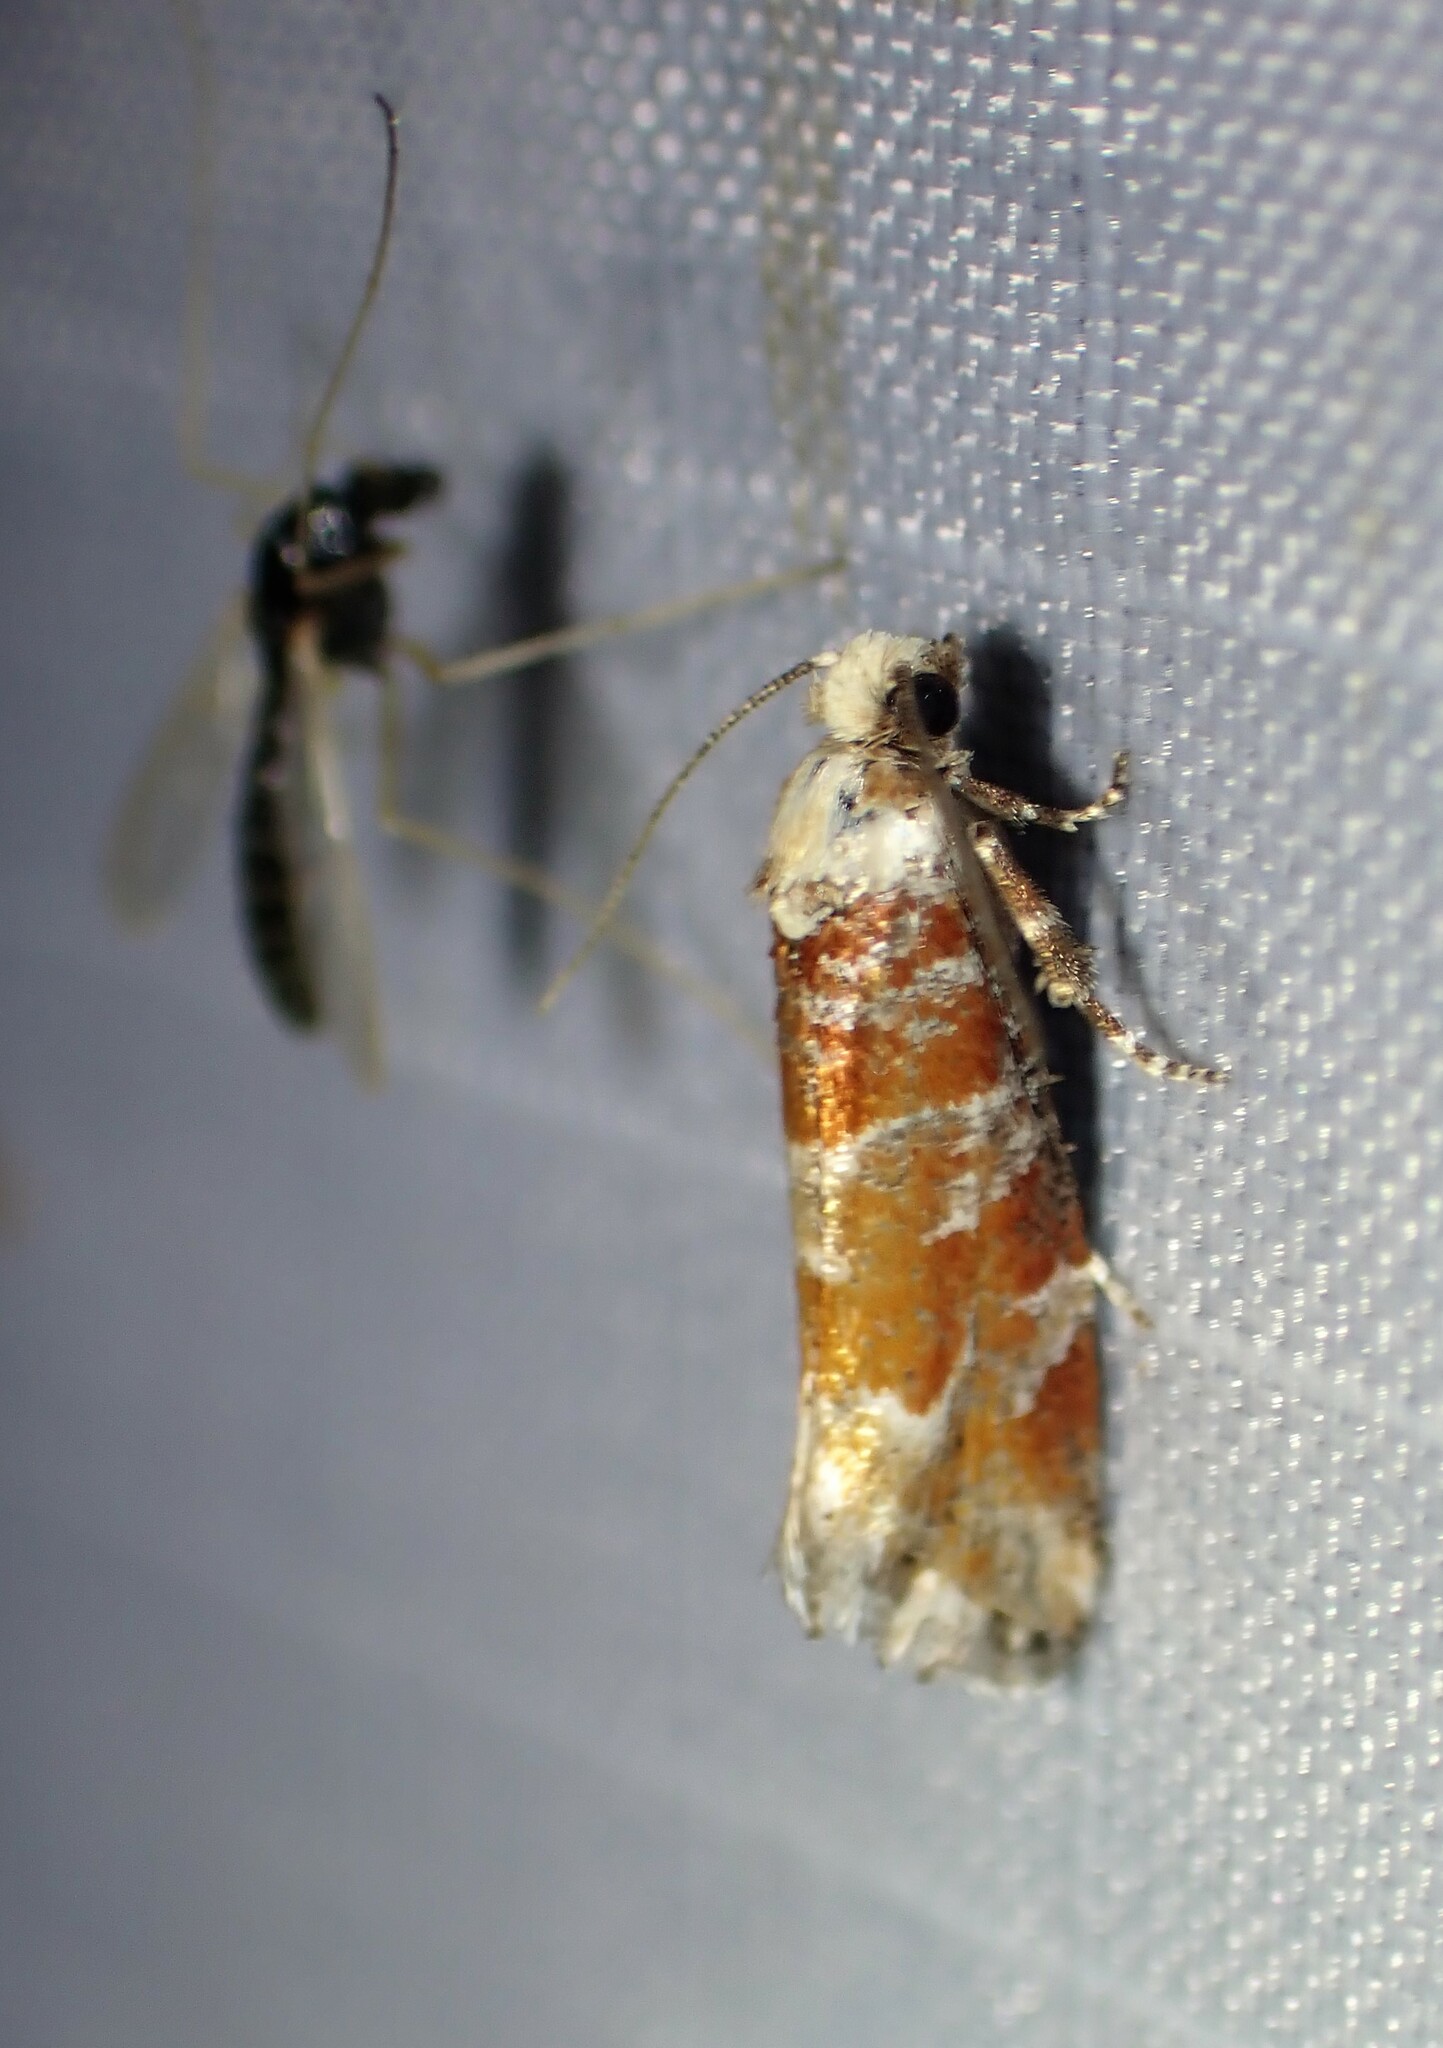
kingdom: Animalia
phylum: Arthropoda
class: Insecta
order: Lepidoptera
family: Tortricidae
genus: Eucopina
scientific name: Eucopina gloriola
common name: White-pine shoot borer moth
